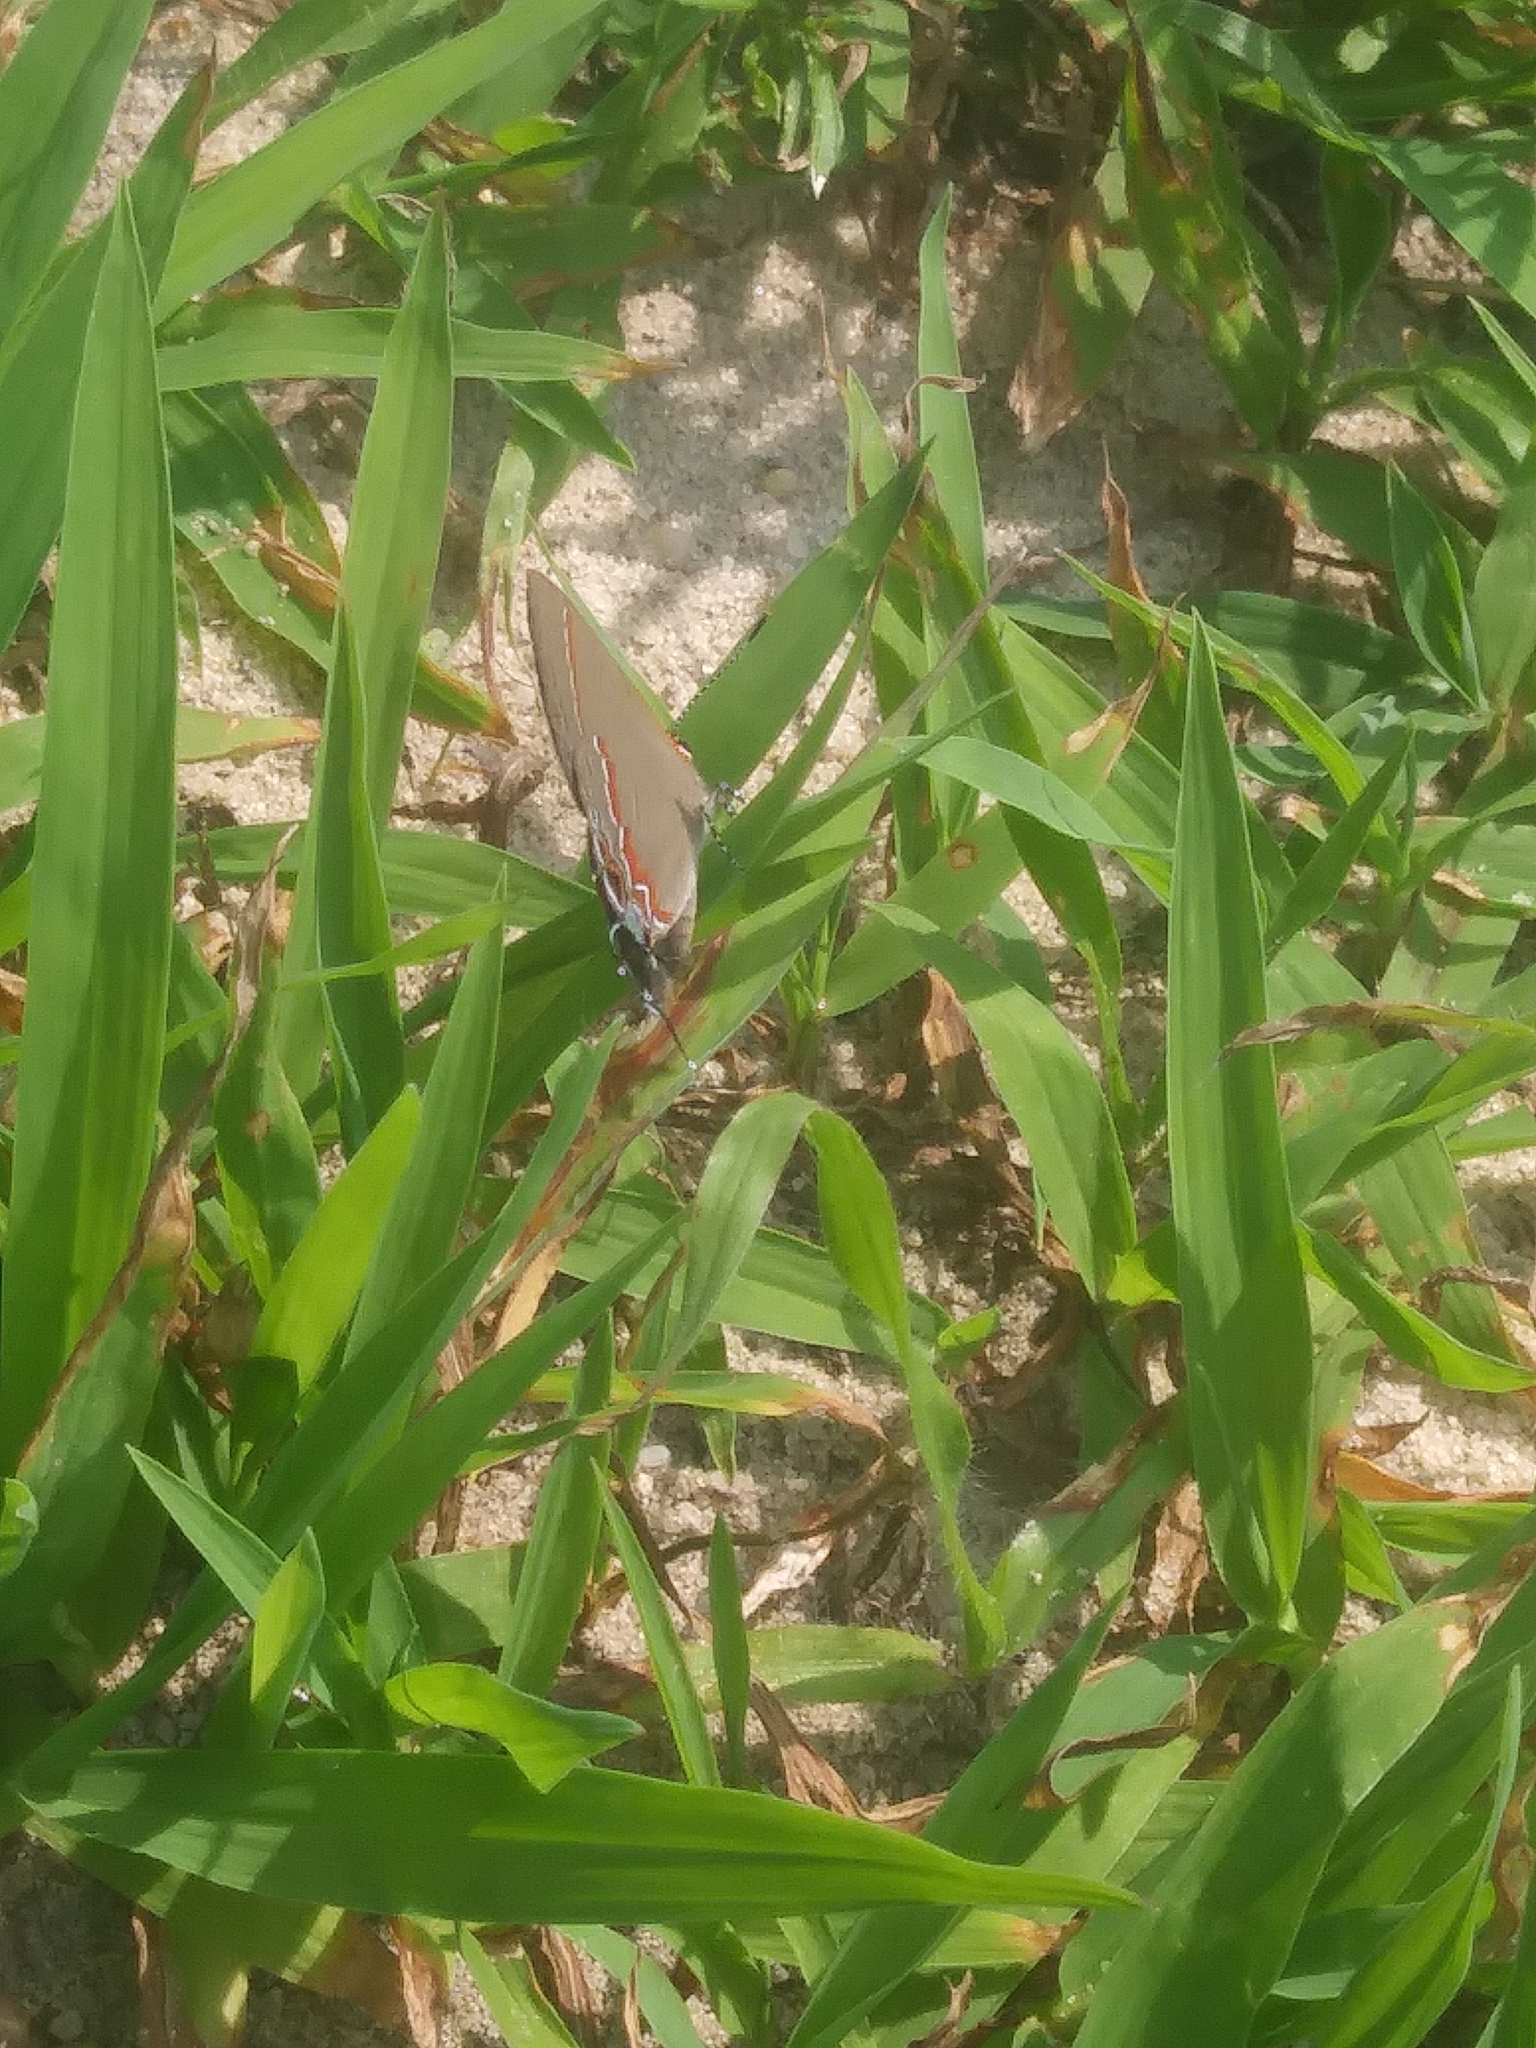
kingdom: Animalia
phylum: Arthropoda
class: Insecta
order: Lepidoptera
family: Lycaenidae
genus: Calycopis
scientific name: Calycopis cecrops
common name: Red-banded hairstreak
